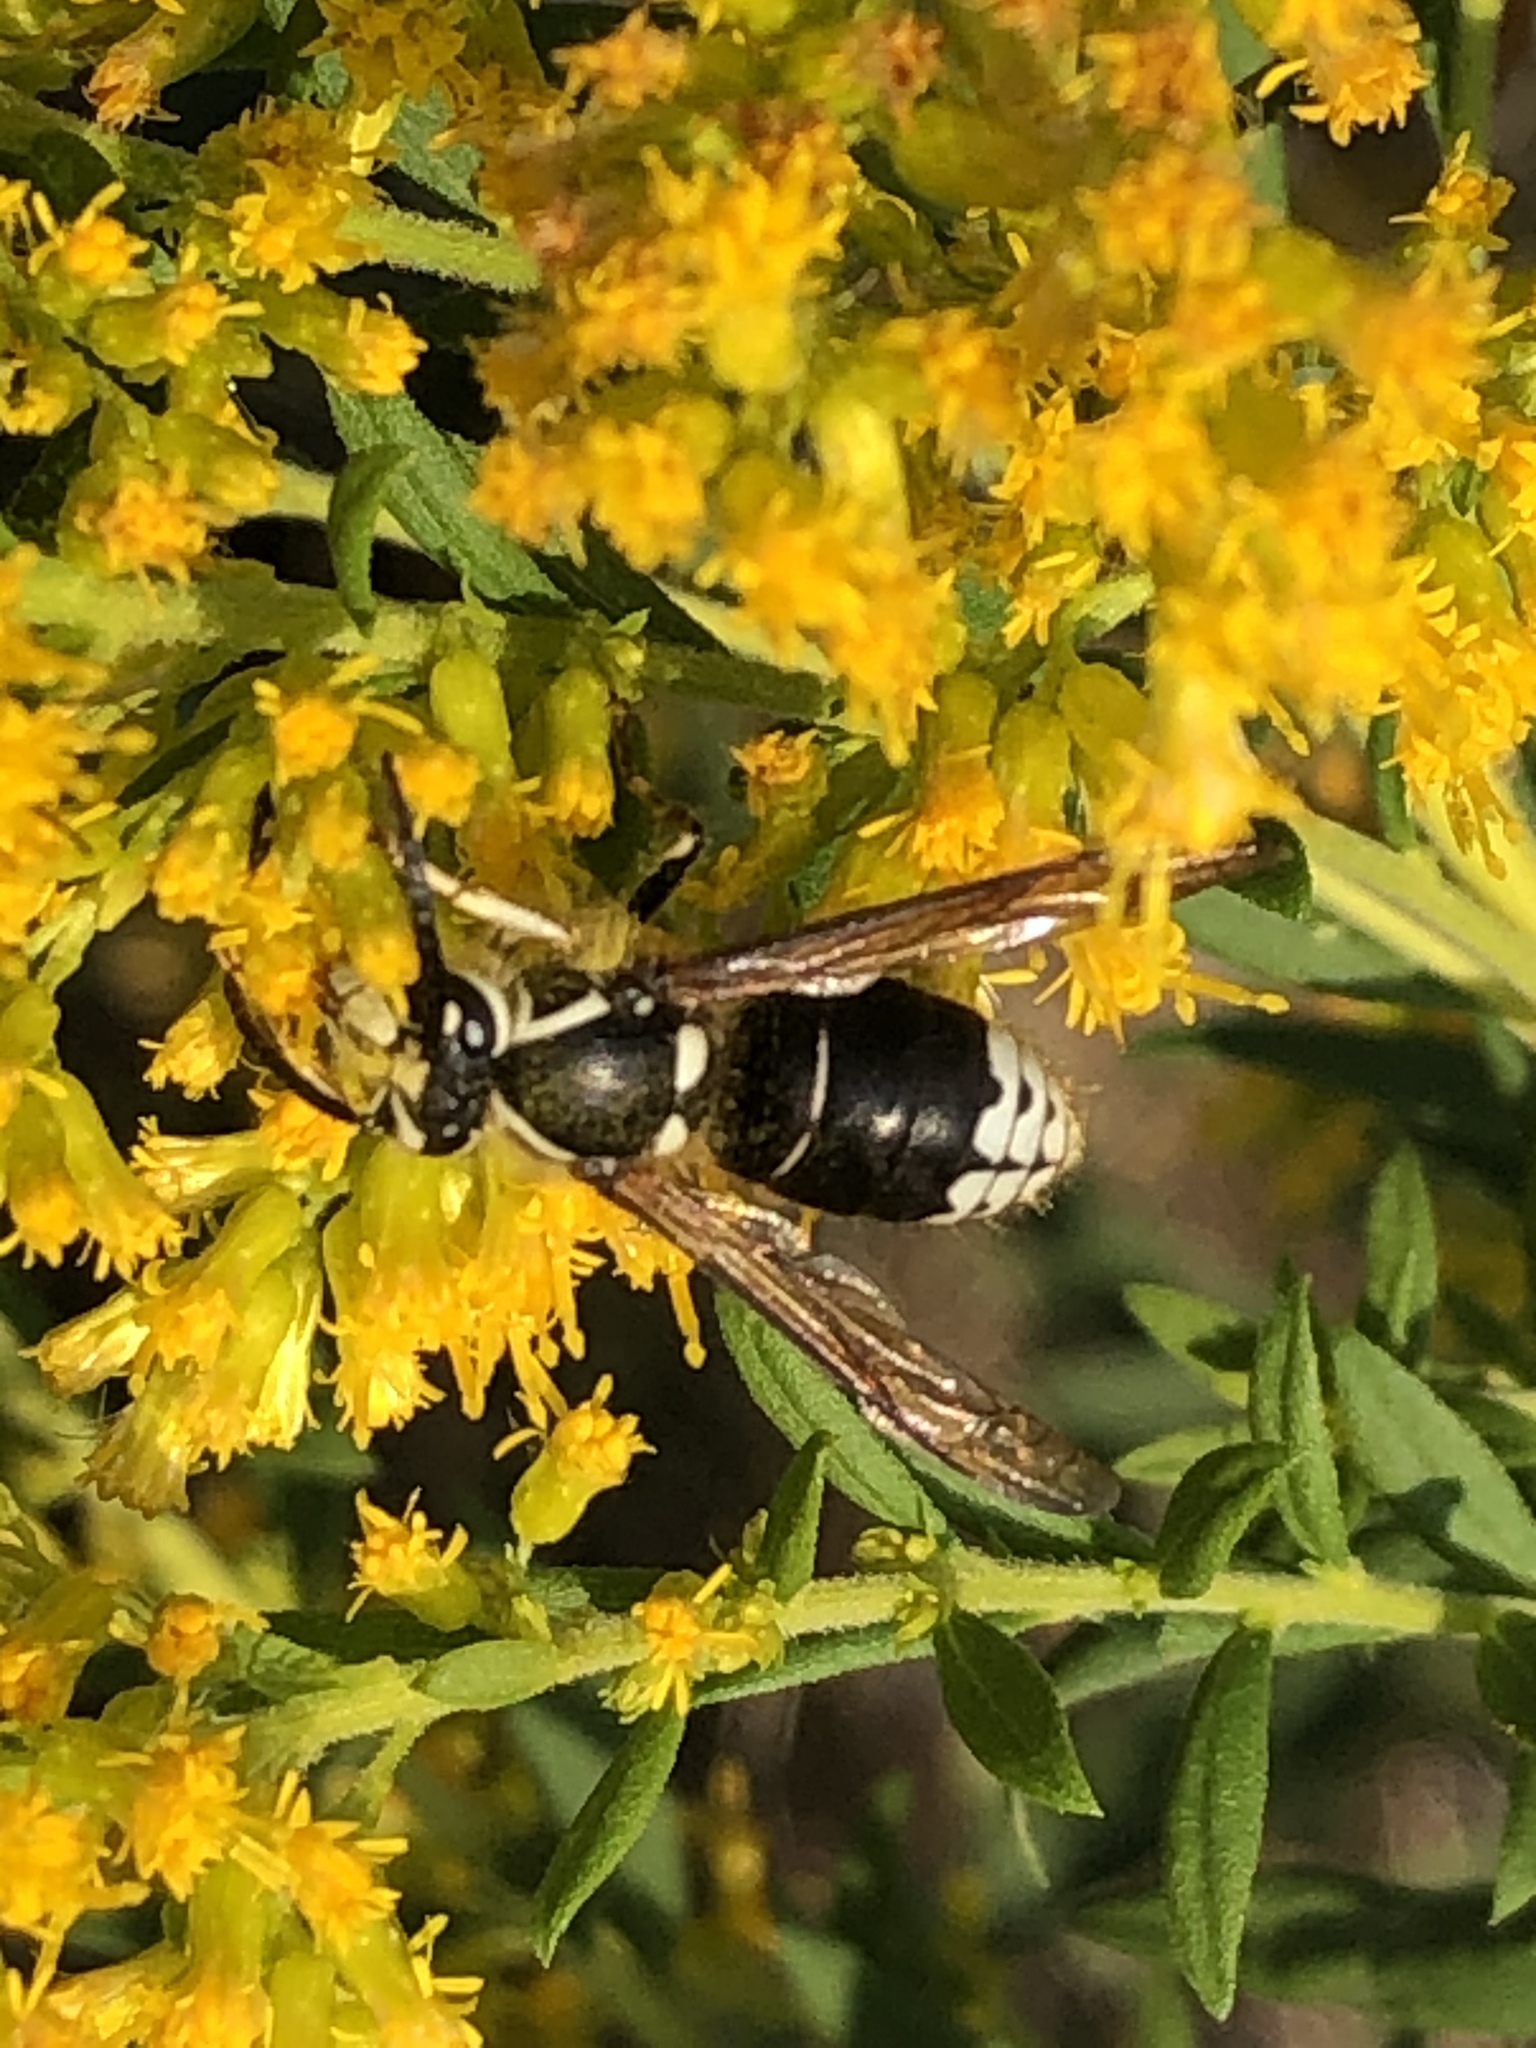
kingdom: Animalia
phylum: Arthropoda
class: Insecta
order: Hymenoptera
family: Vespidae
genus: Dolichovespula
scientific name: Dolichovespula maculata
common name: Bald-faced hornet
